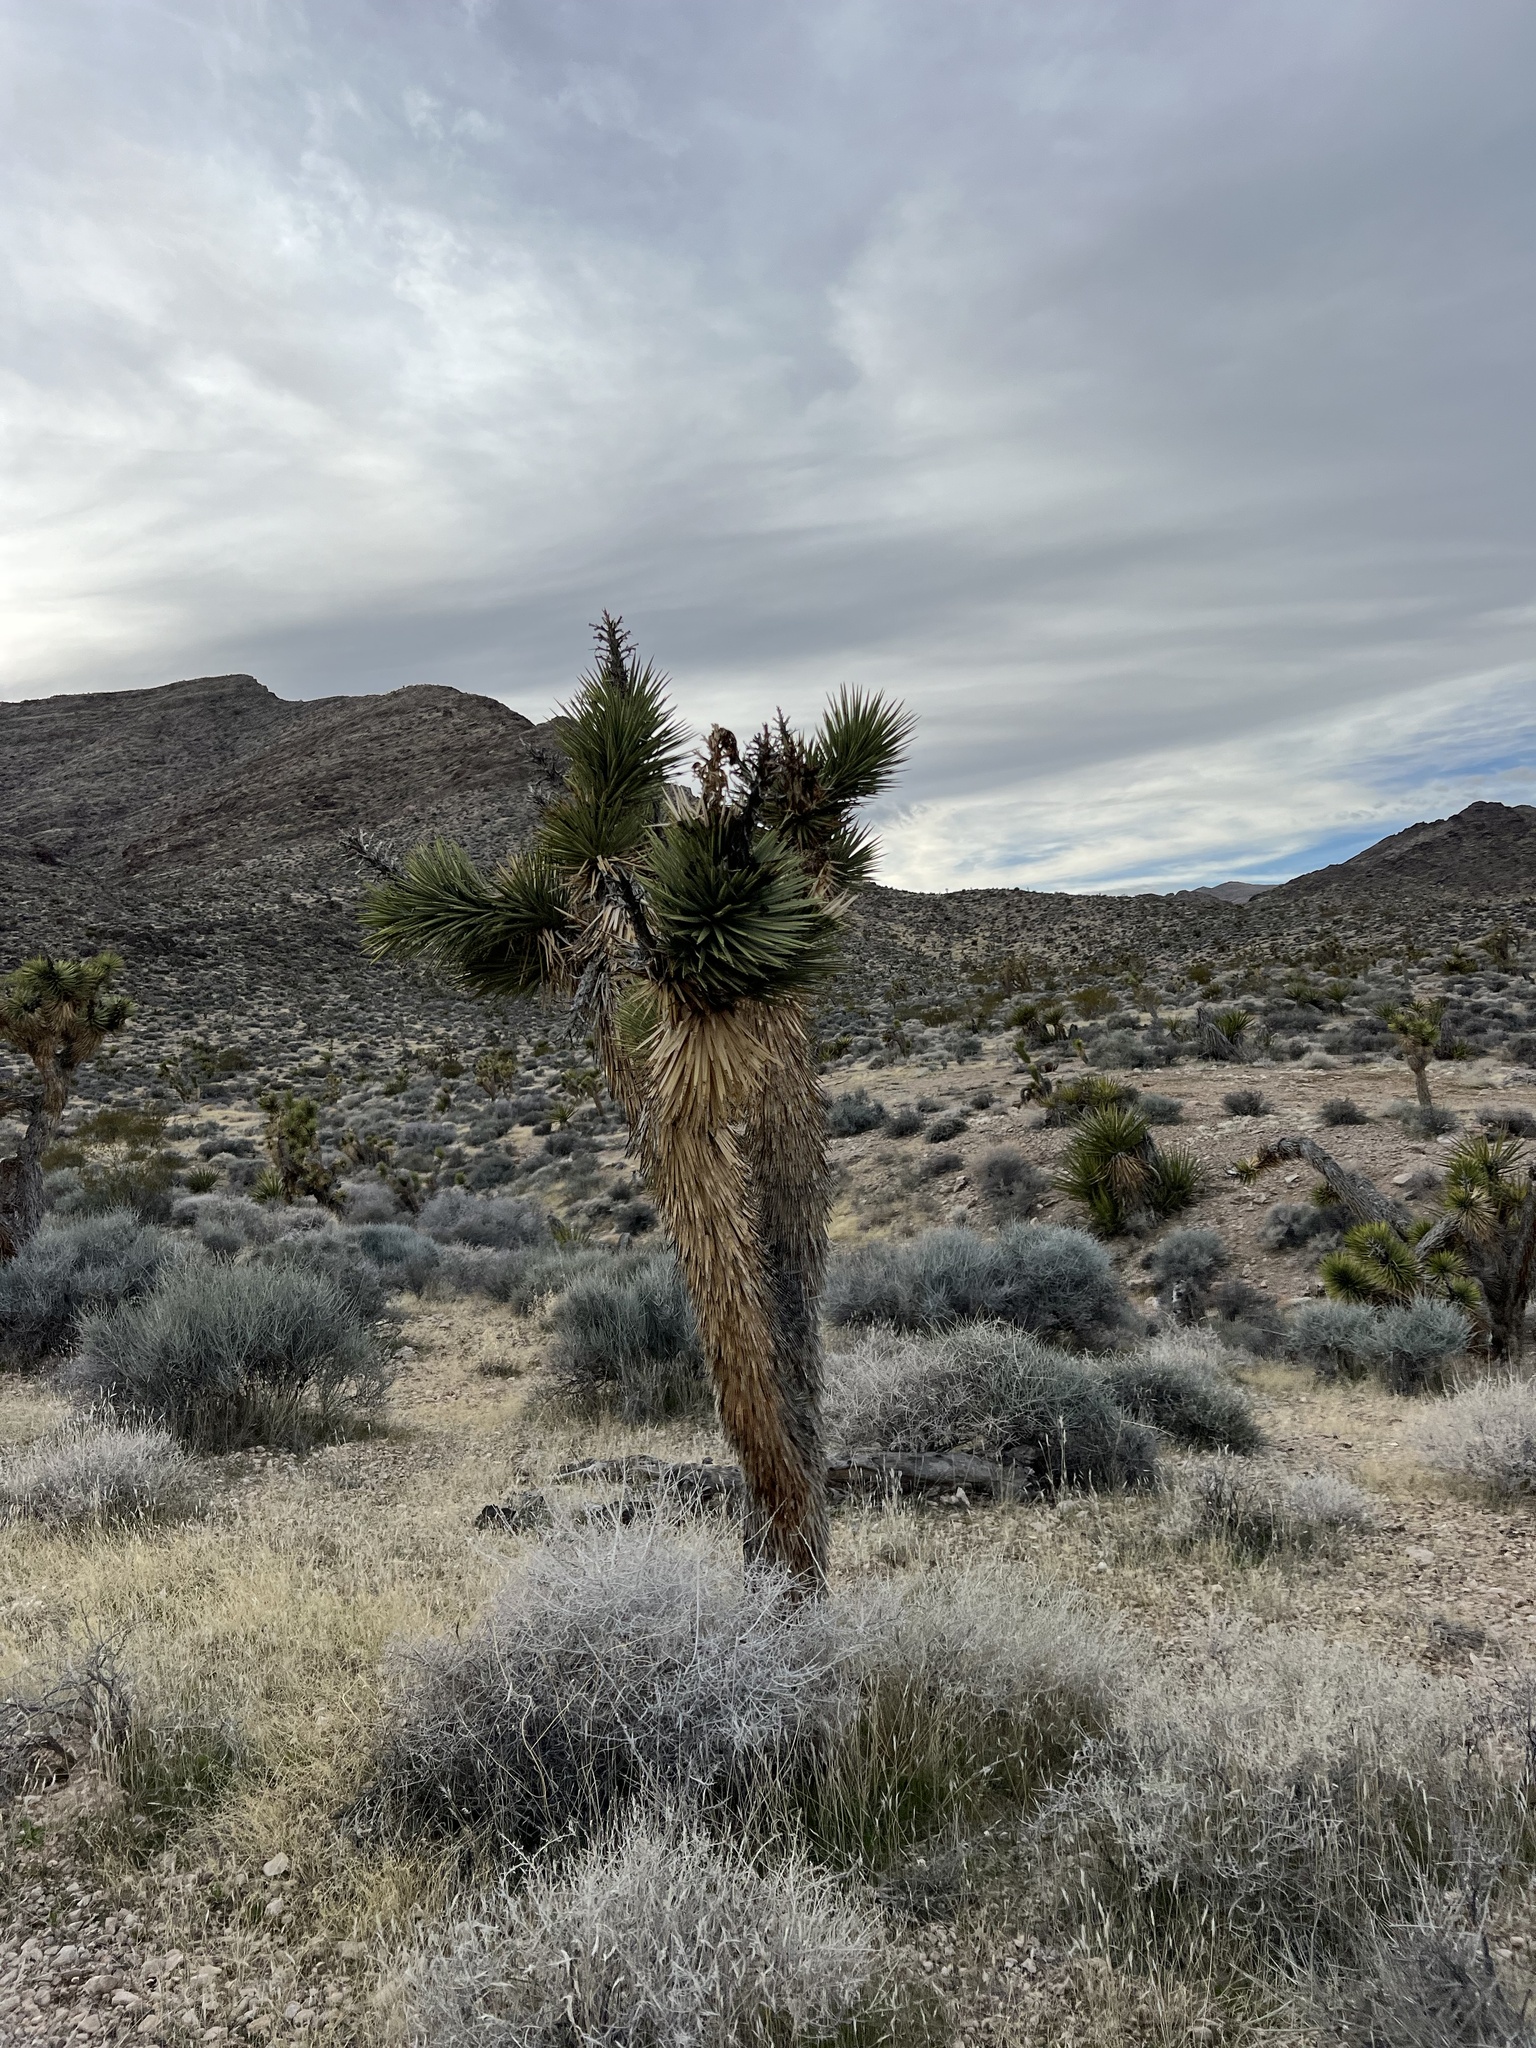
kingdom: Plantae
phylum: Tracheophyta
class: Liliopsida
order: Asparagales
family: Asparagaceae
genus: Yucca
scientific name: Yucca brevifolia
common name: Joshua tree
